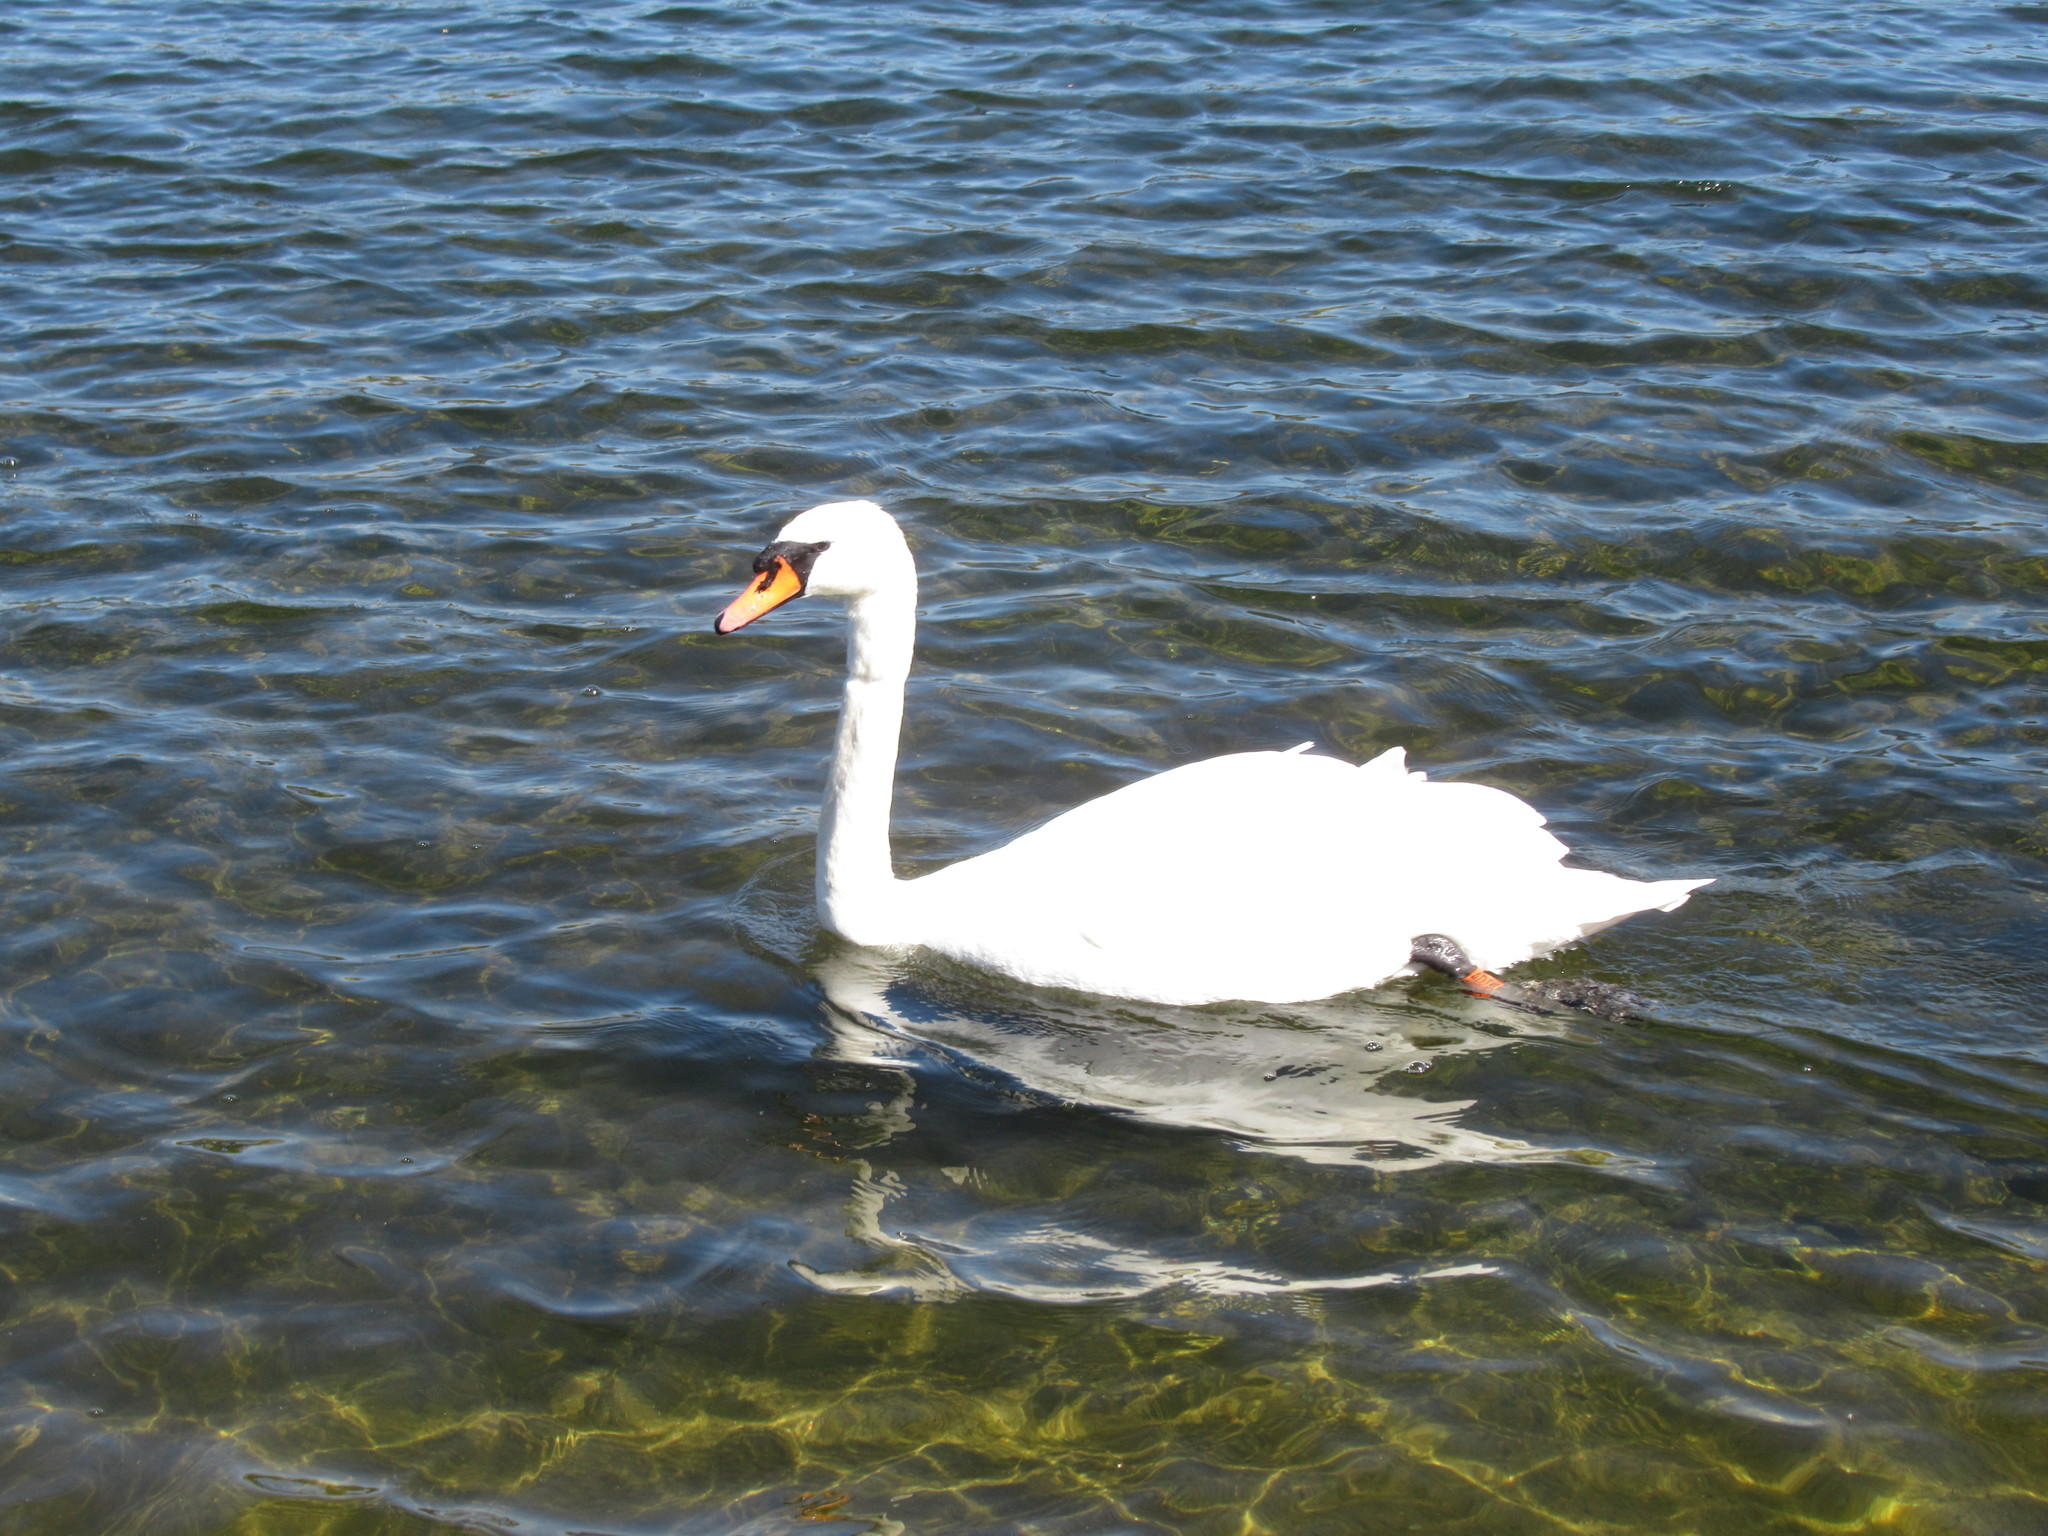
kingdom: Animalia
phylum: Chordata
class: Aves
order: Anseriformes
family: Anatidae
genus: Cygnus
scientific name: Cygnus olor
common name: Mute swan
